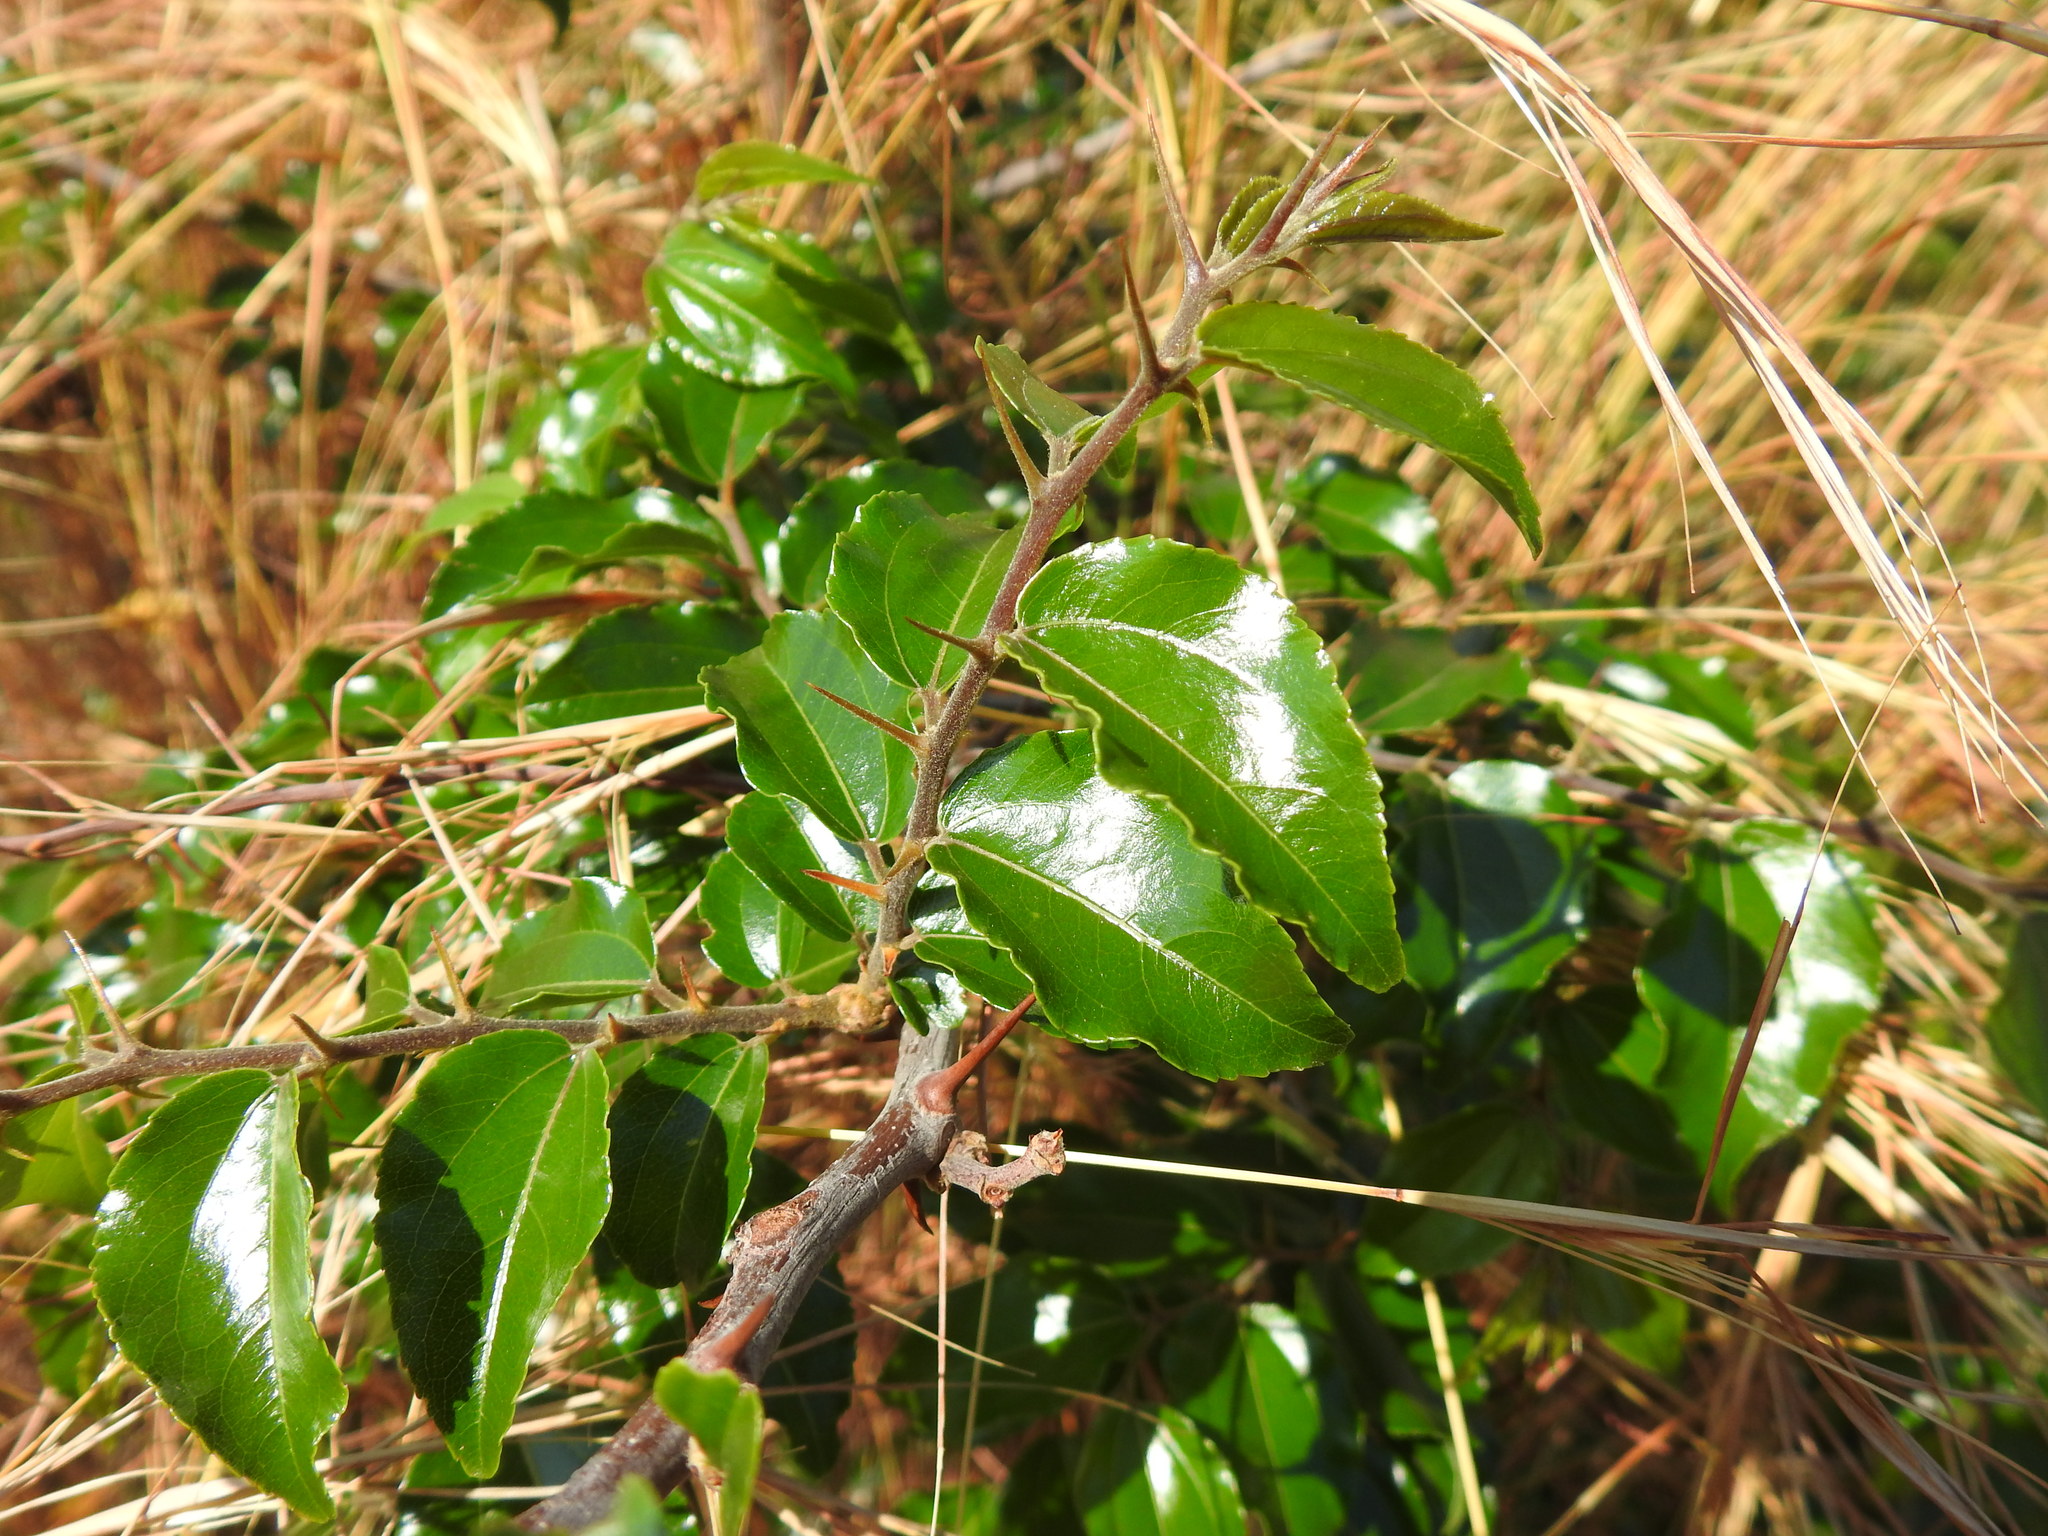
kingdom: Plantae
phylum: Tracheophyta
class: Magnoliopsida
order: Rosales
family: Rhamnaceae
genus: Ziziphus
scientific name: Ziziphus mucronata
